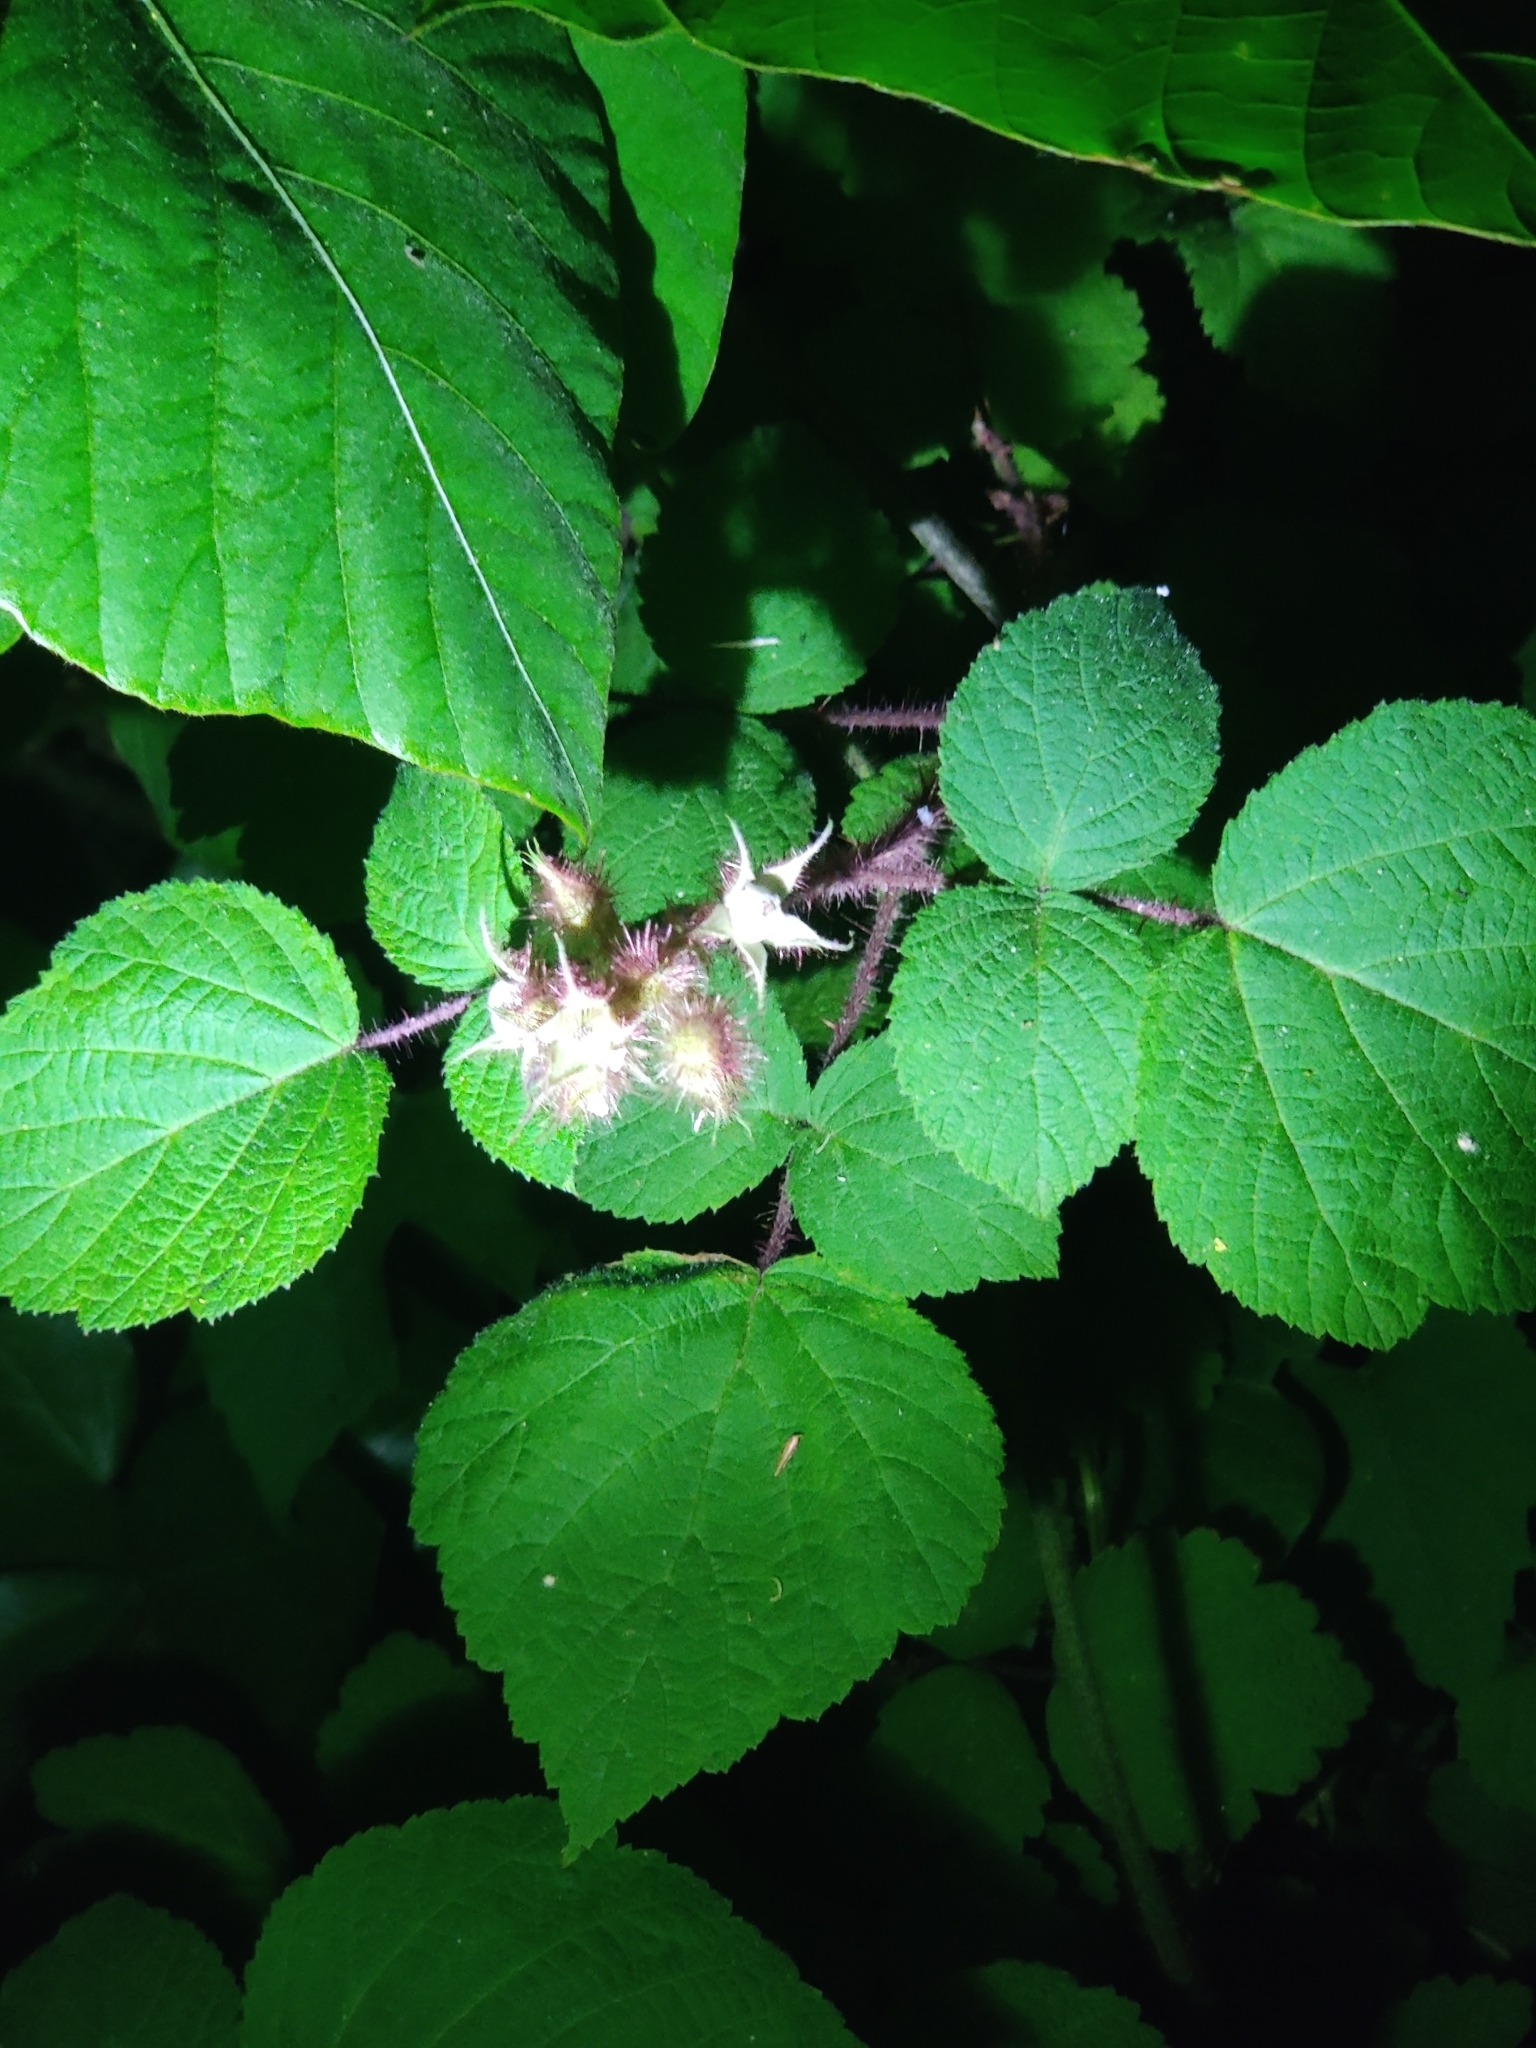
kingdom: Plantae
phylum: Tracheophyta
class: Magnoliopsida
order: Rosales
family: Rosaceae
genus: Rubus
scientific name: Rubus phoenicolasius
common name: Japanese wineberry
